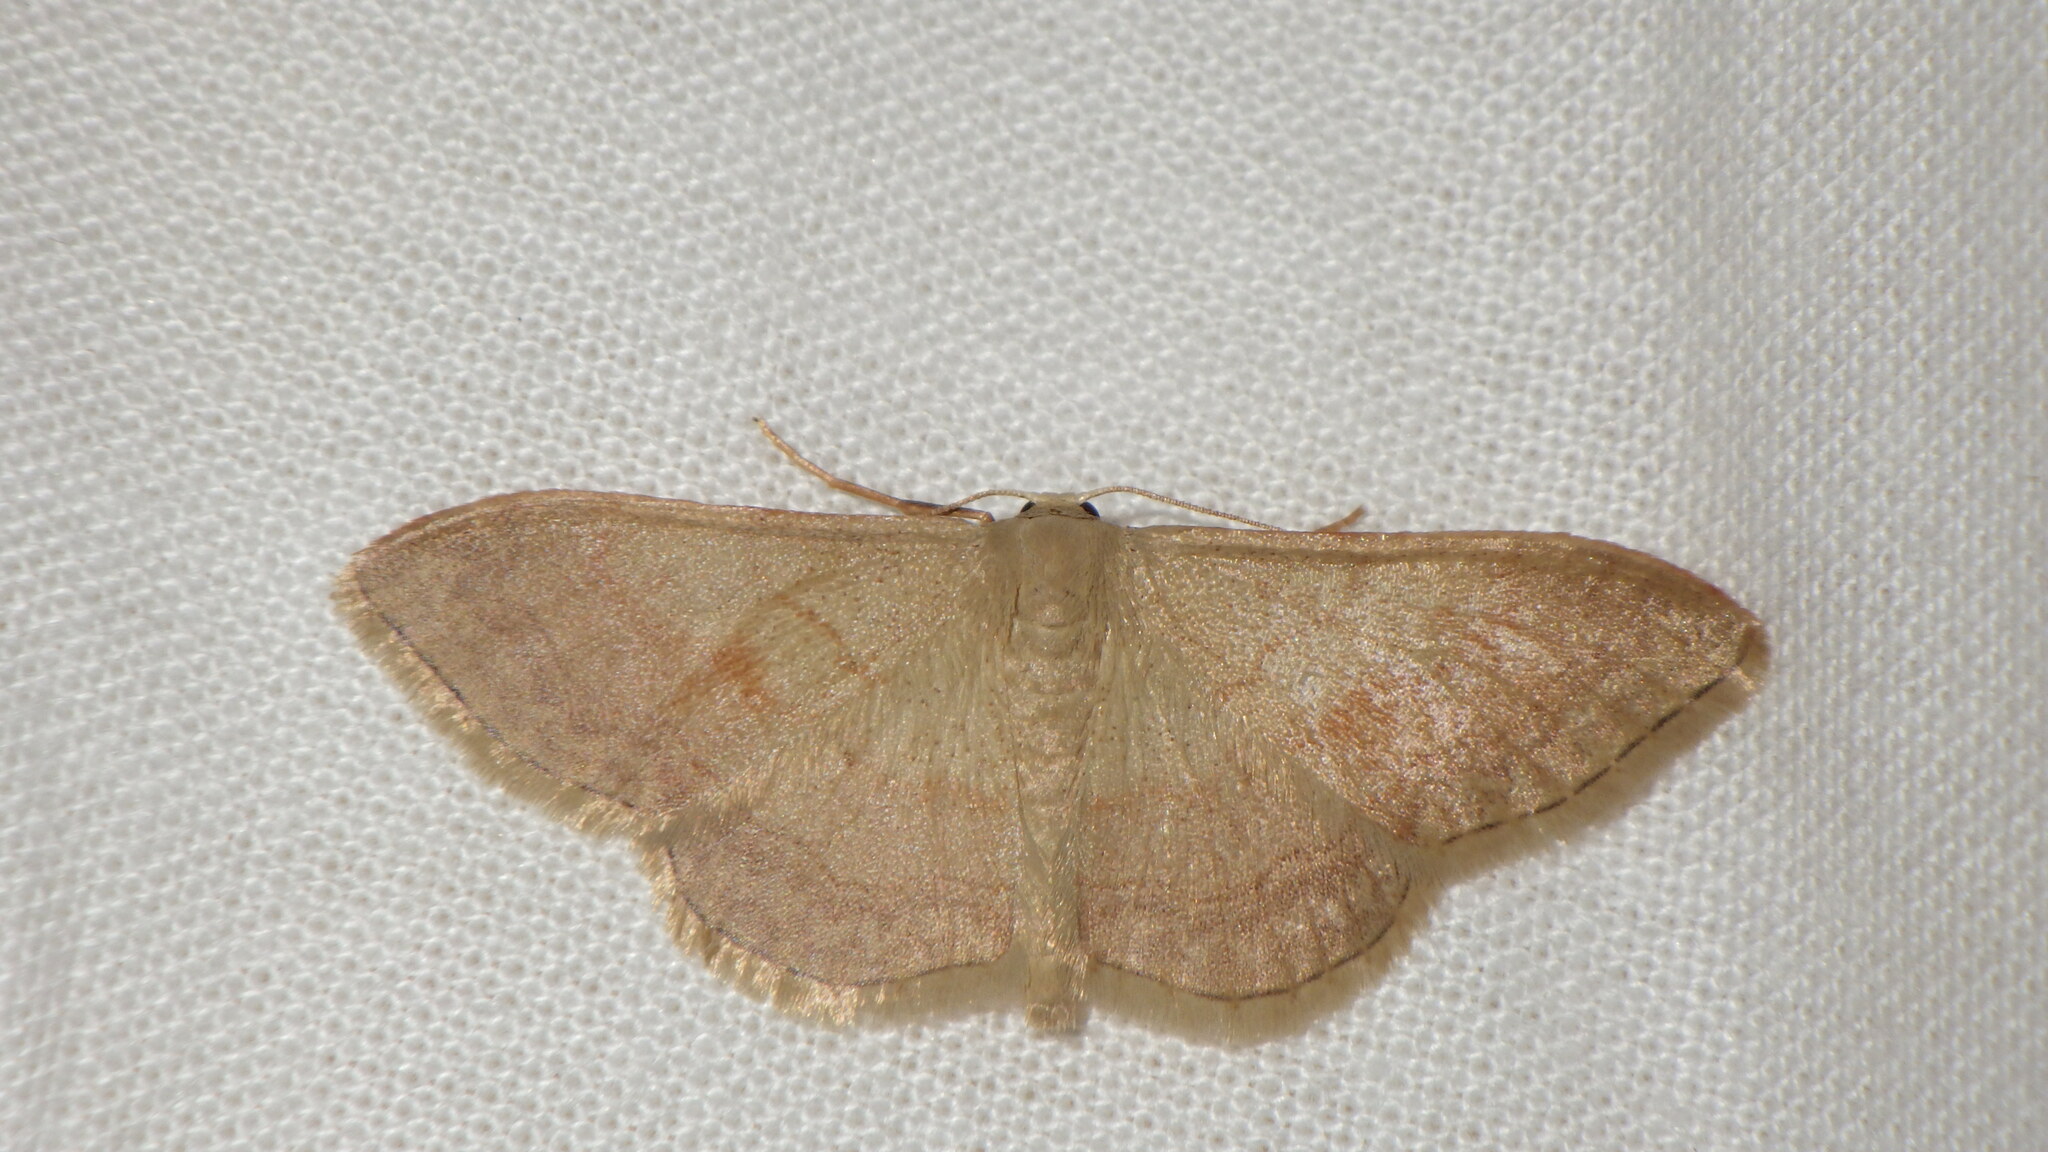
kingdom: Animalia
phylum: Arthropoda
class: Insecta
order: Lepidoptera
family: Geometridae
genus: Idaea
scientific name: Idaea bilinearia
